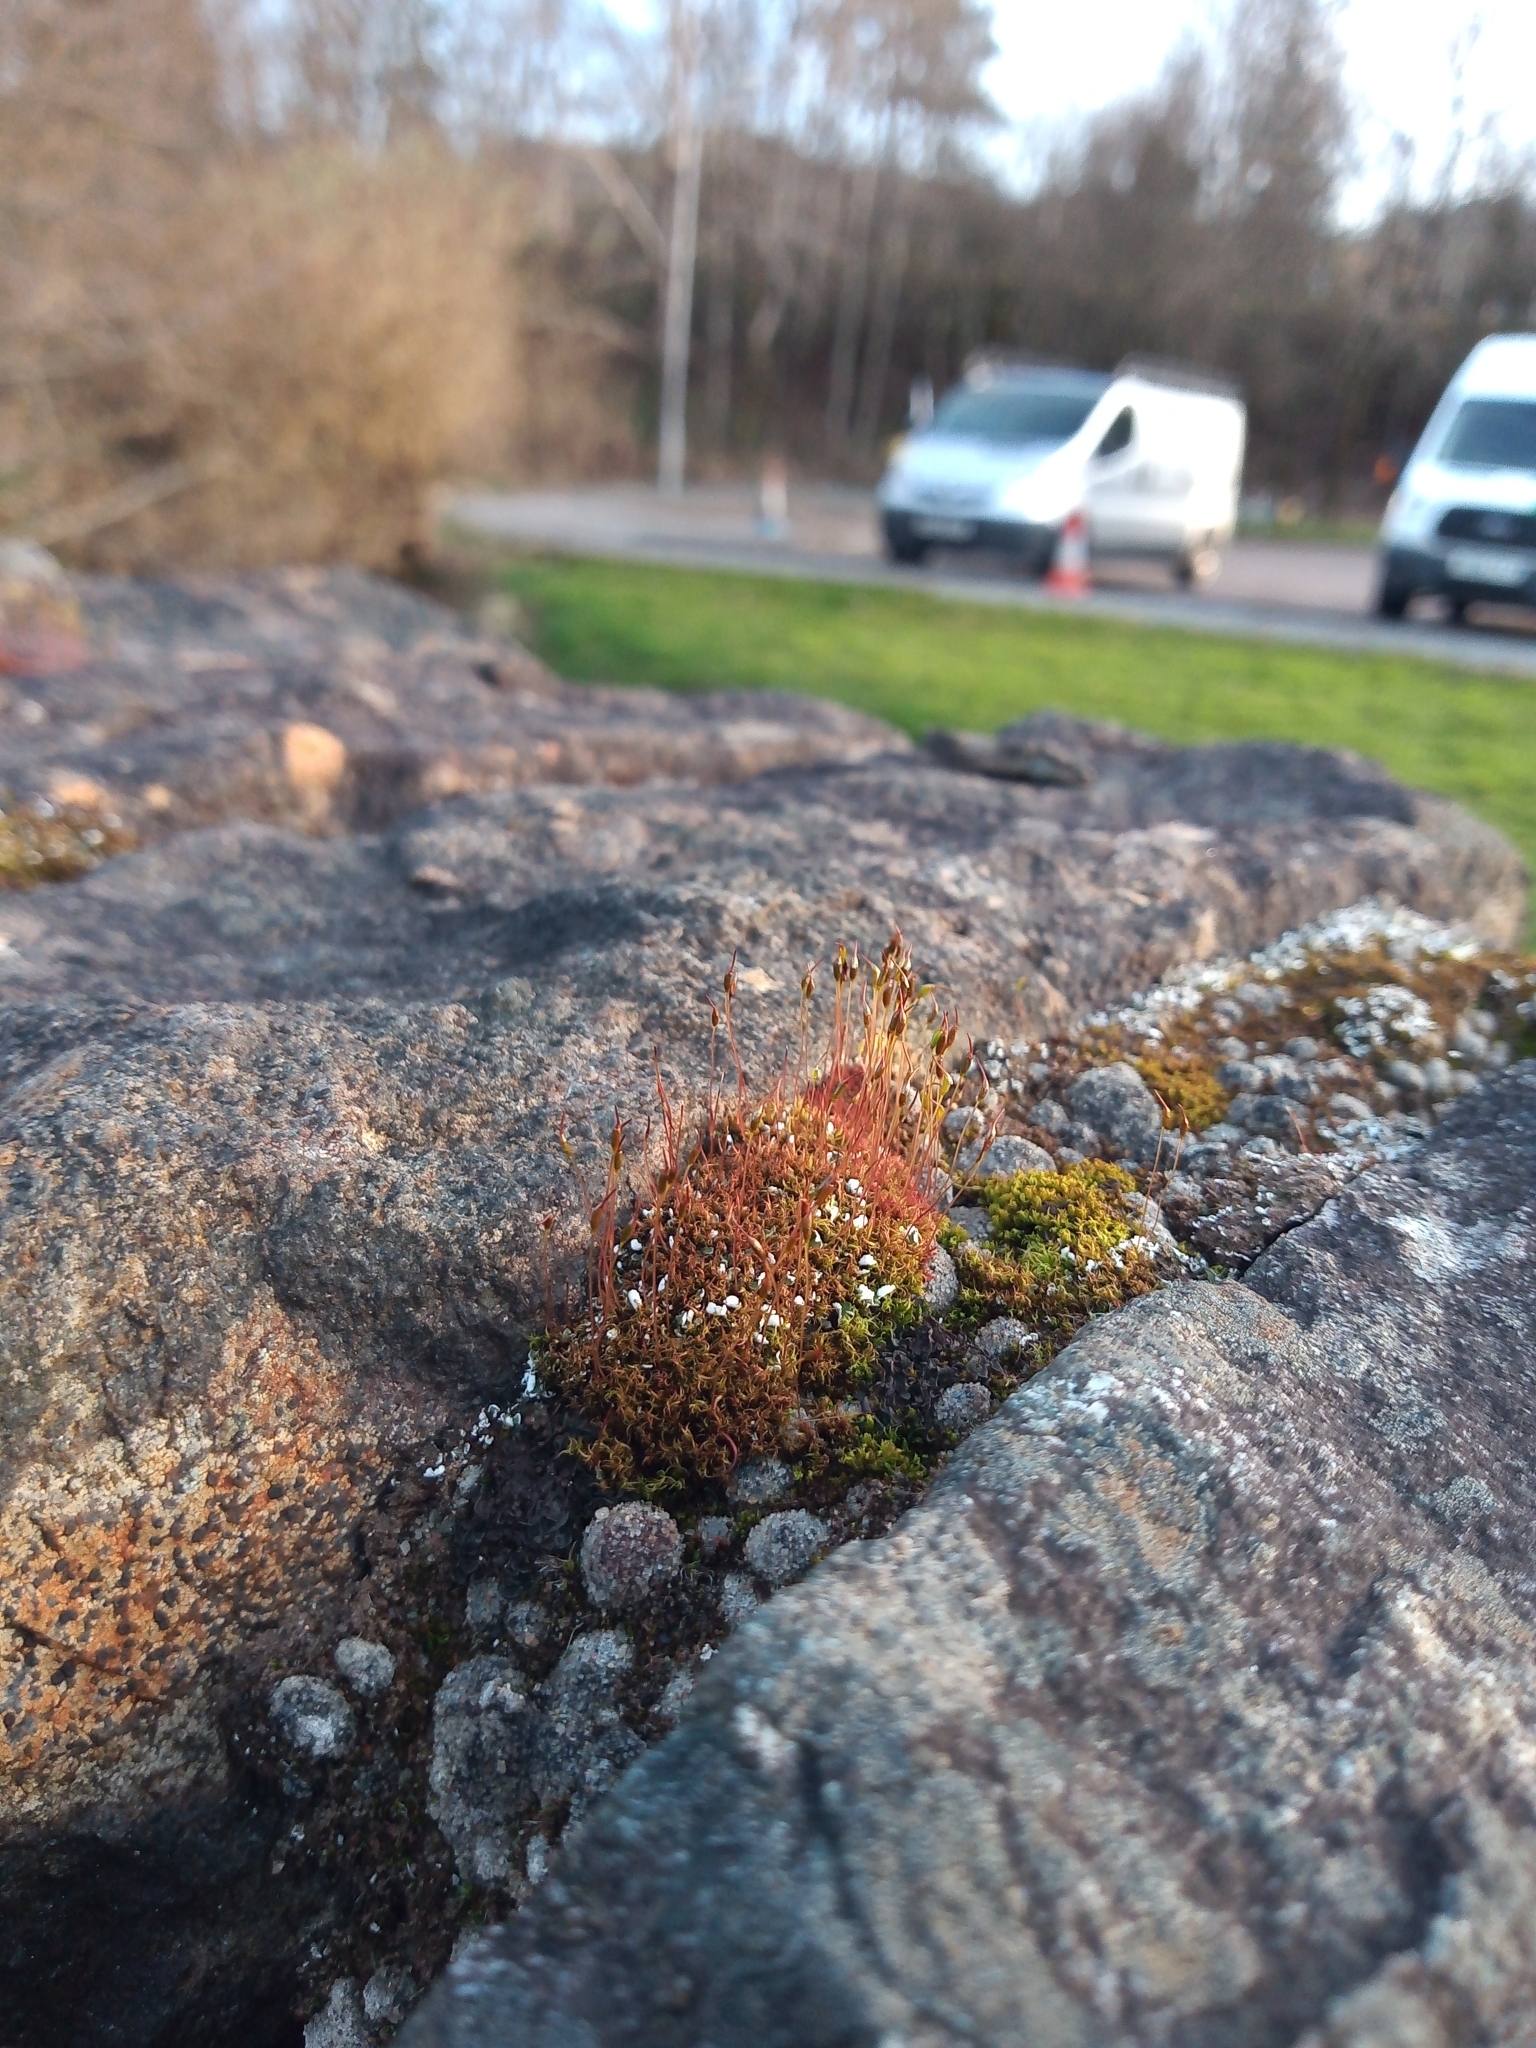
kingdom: Plantae
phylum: Bryophyta
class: Bryopsida
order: Dicranales
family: Ditrichaceae
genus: Ceratodon
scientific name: Ceratodon purpureus
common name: Redshank
